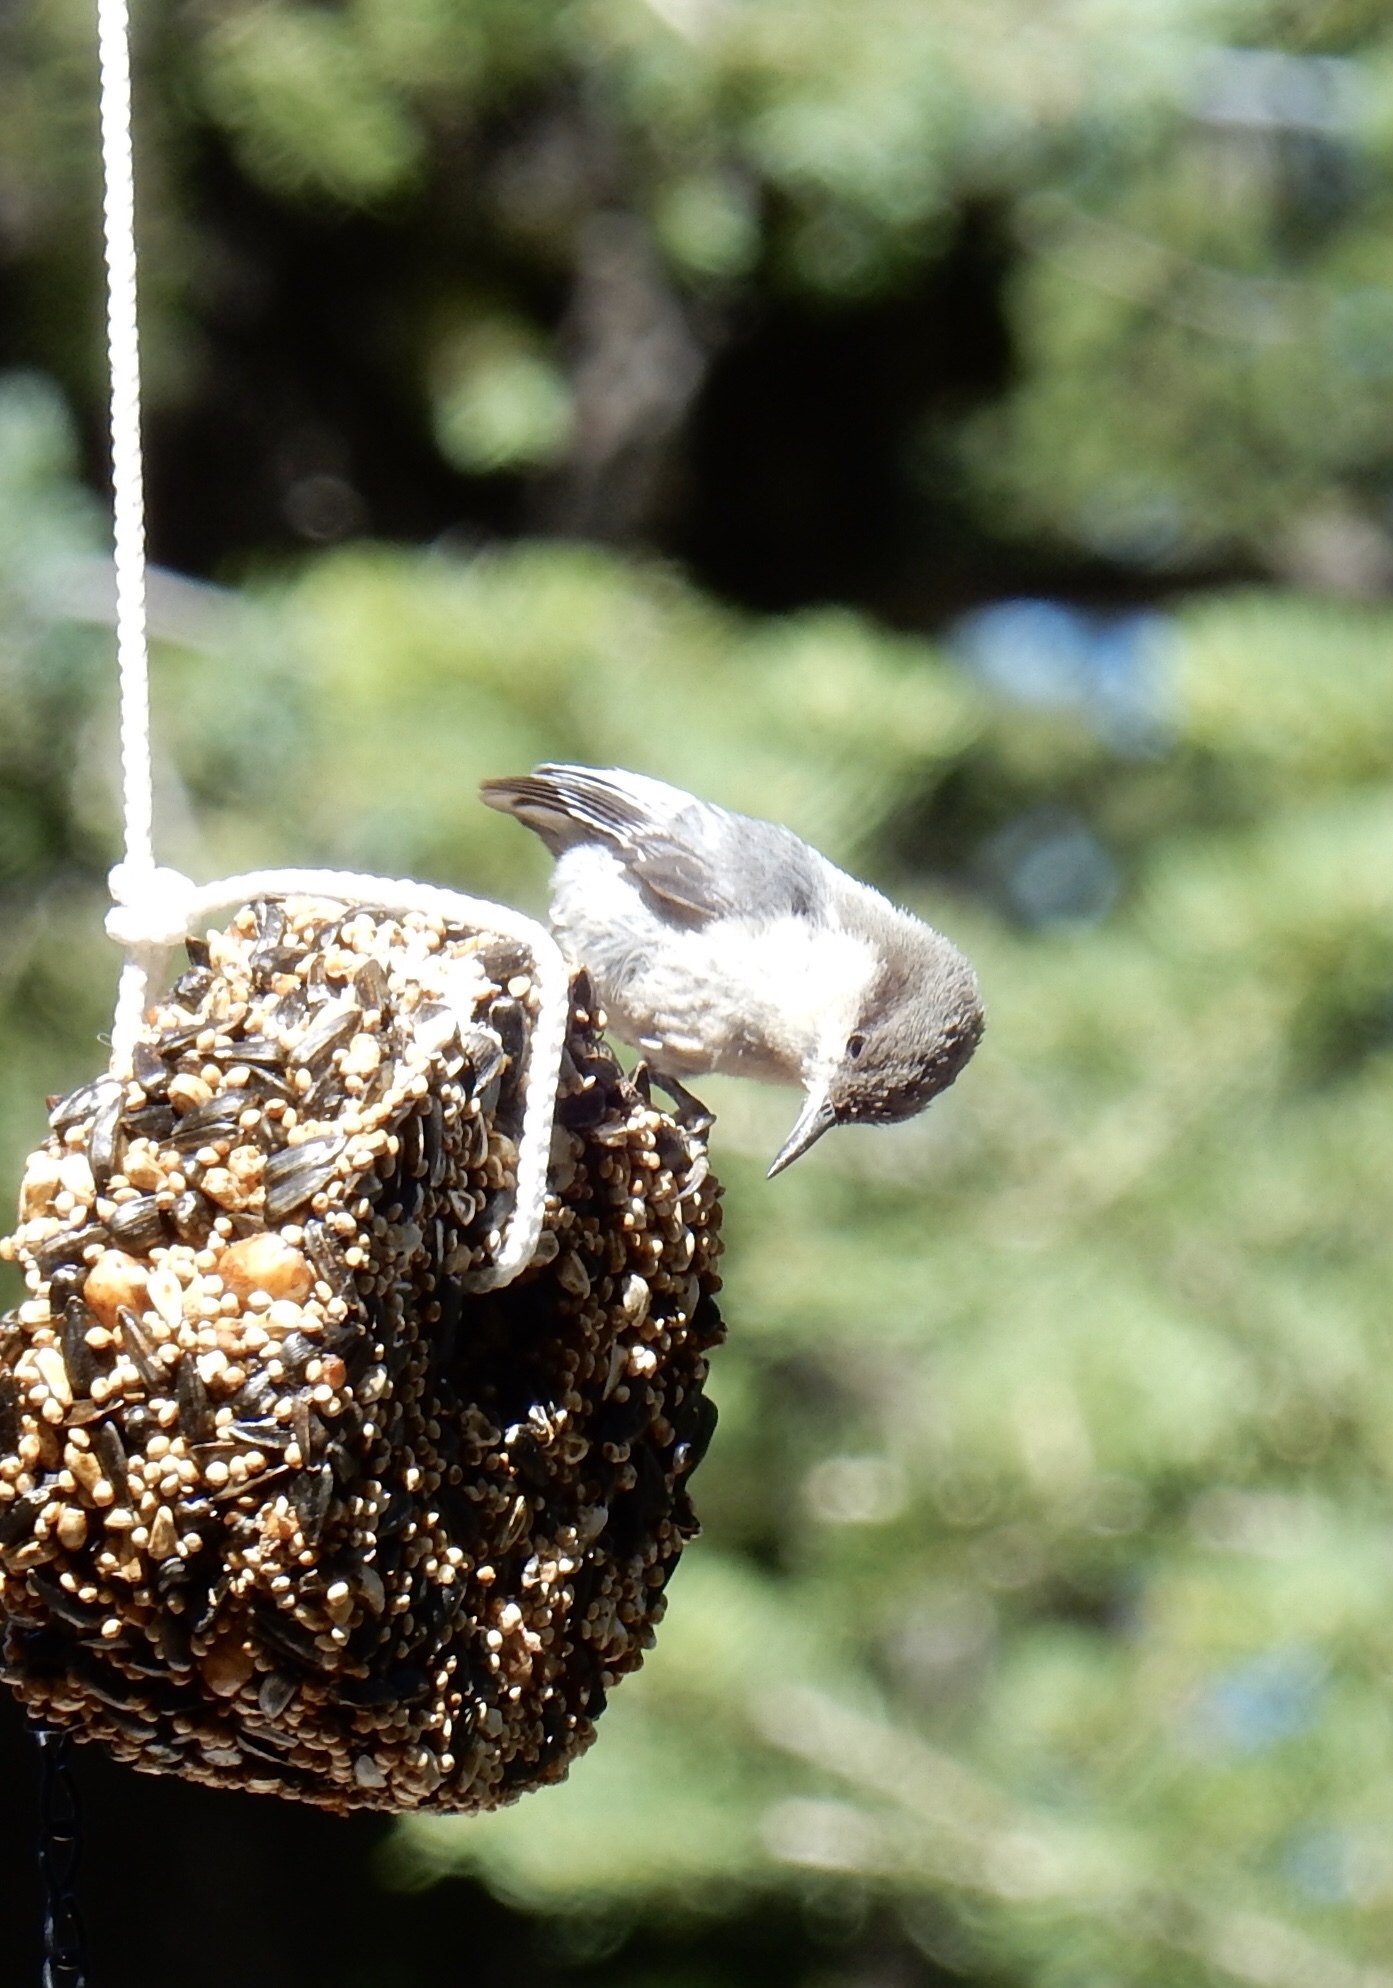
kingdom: Animalia
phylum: Chordata
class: Aves
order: Passeriformes
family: Sittidae
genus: Sitta
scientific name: Sitta pygmaea
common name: Pygmy nuthatch
